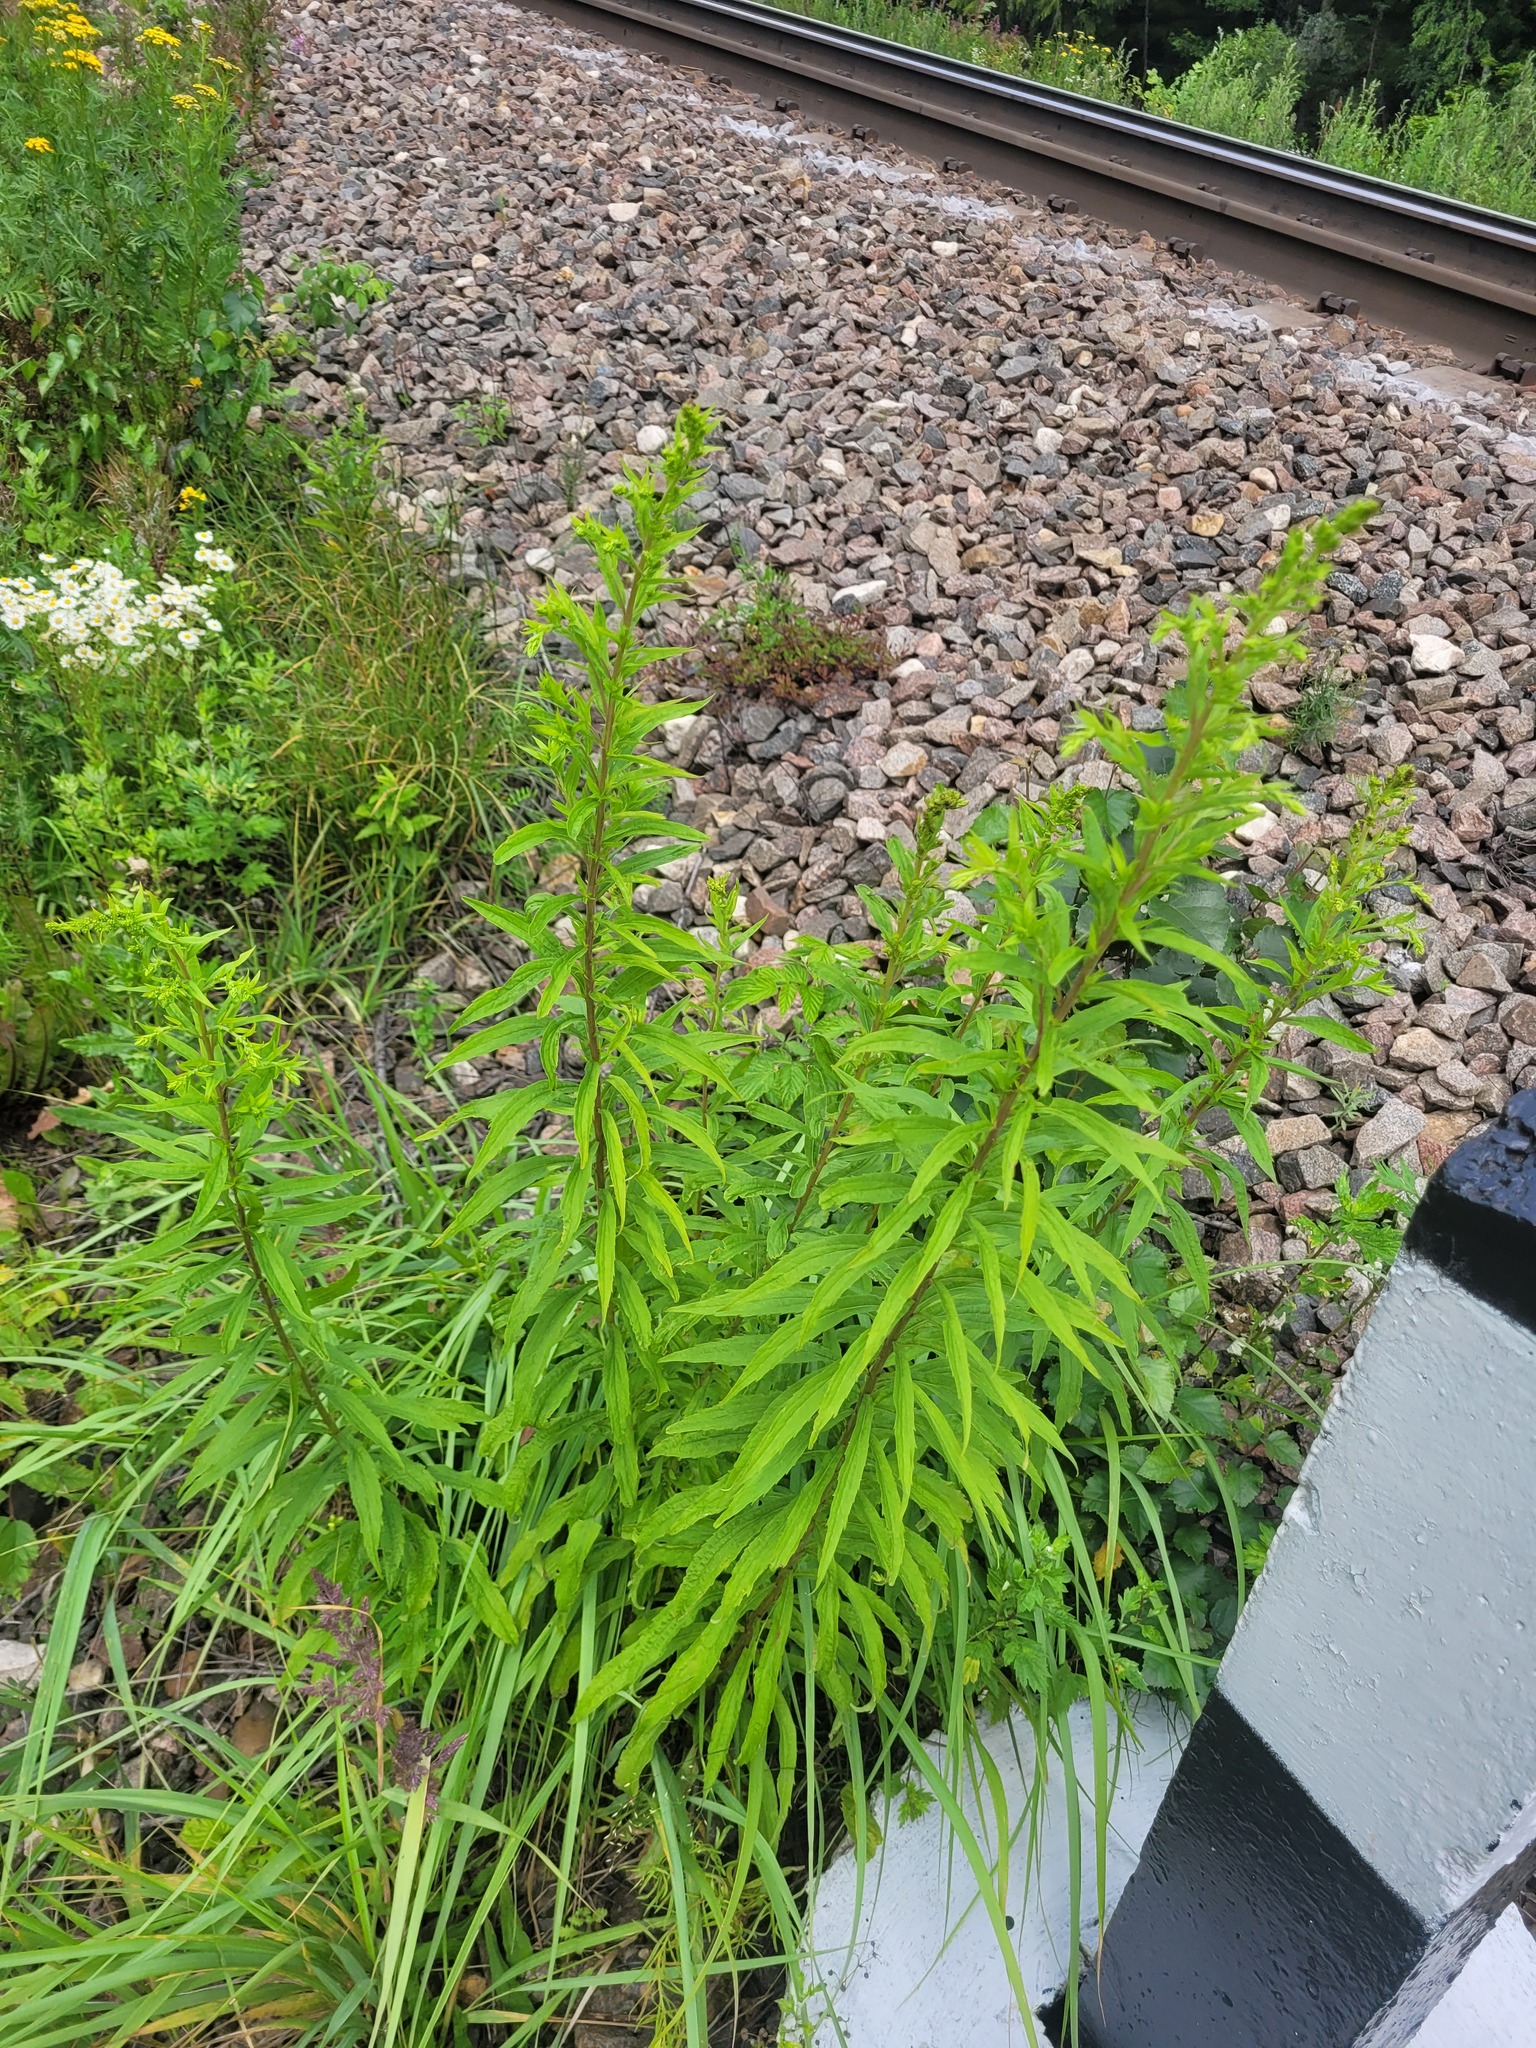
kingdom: Plantae
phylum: Tracheophyta
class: Magnoliopsida
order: Asterales
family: Asteraceae
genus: Solidago
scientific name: Solidago canadensis
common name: Canada goldenrod
